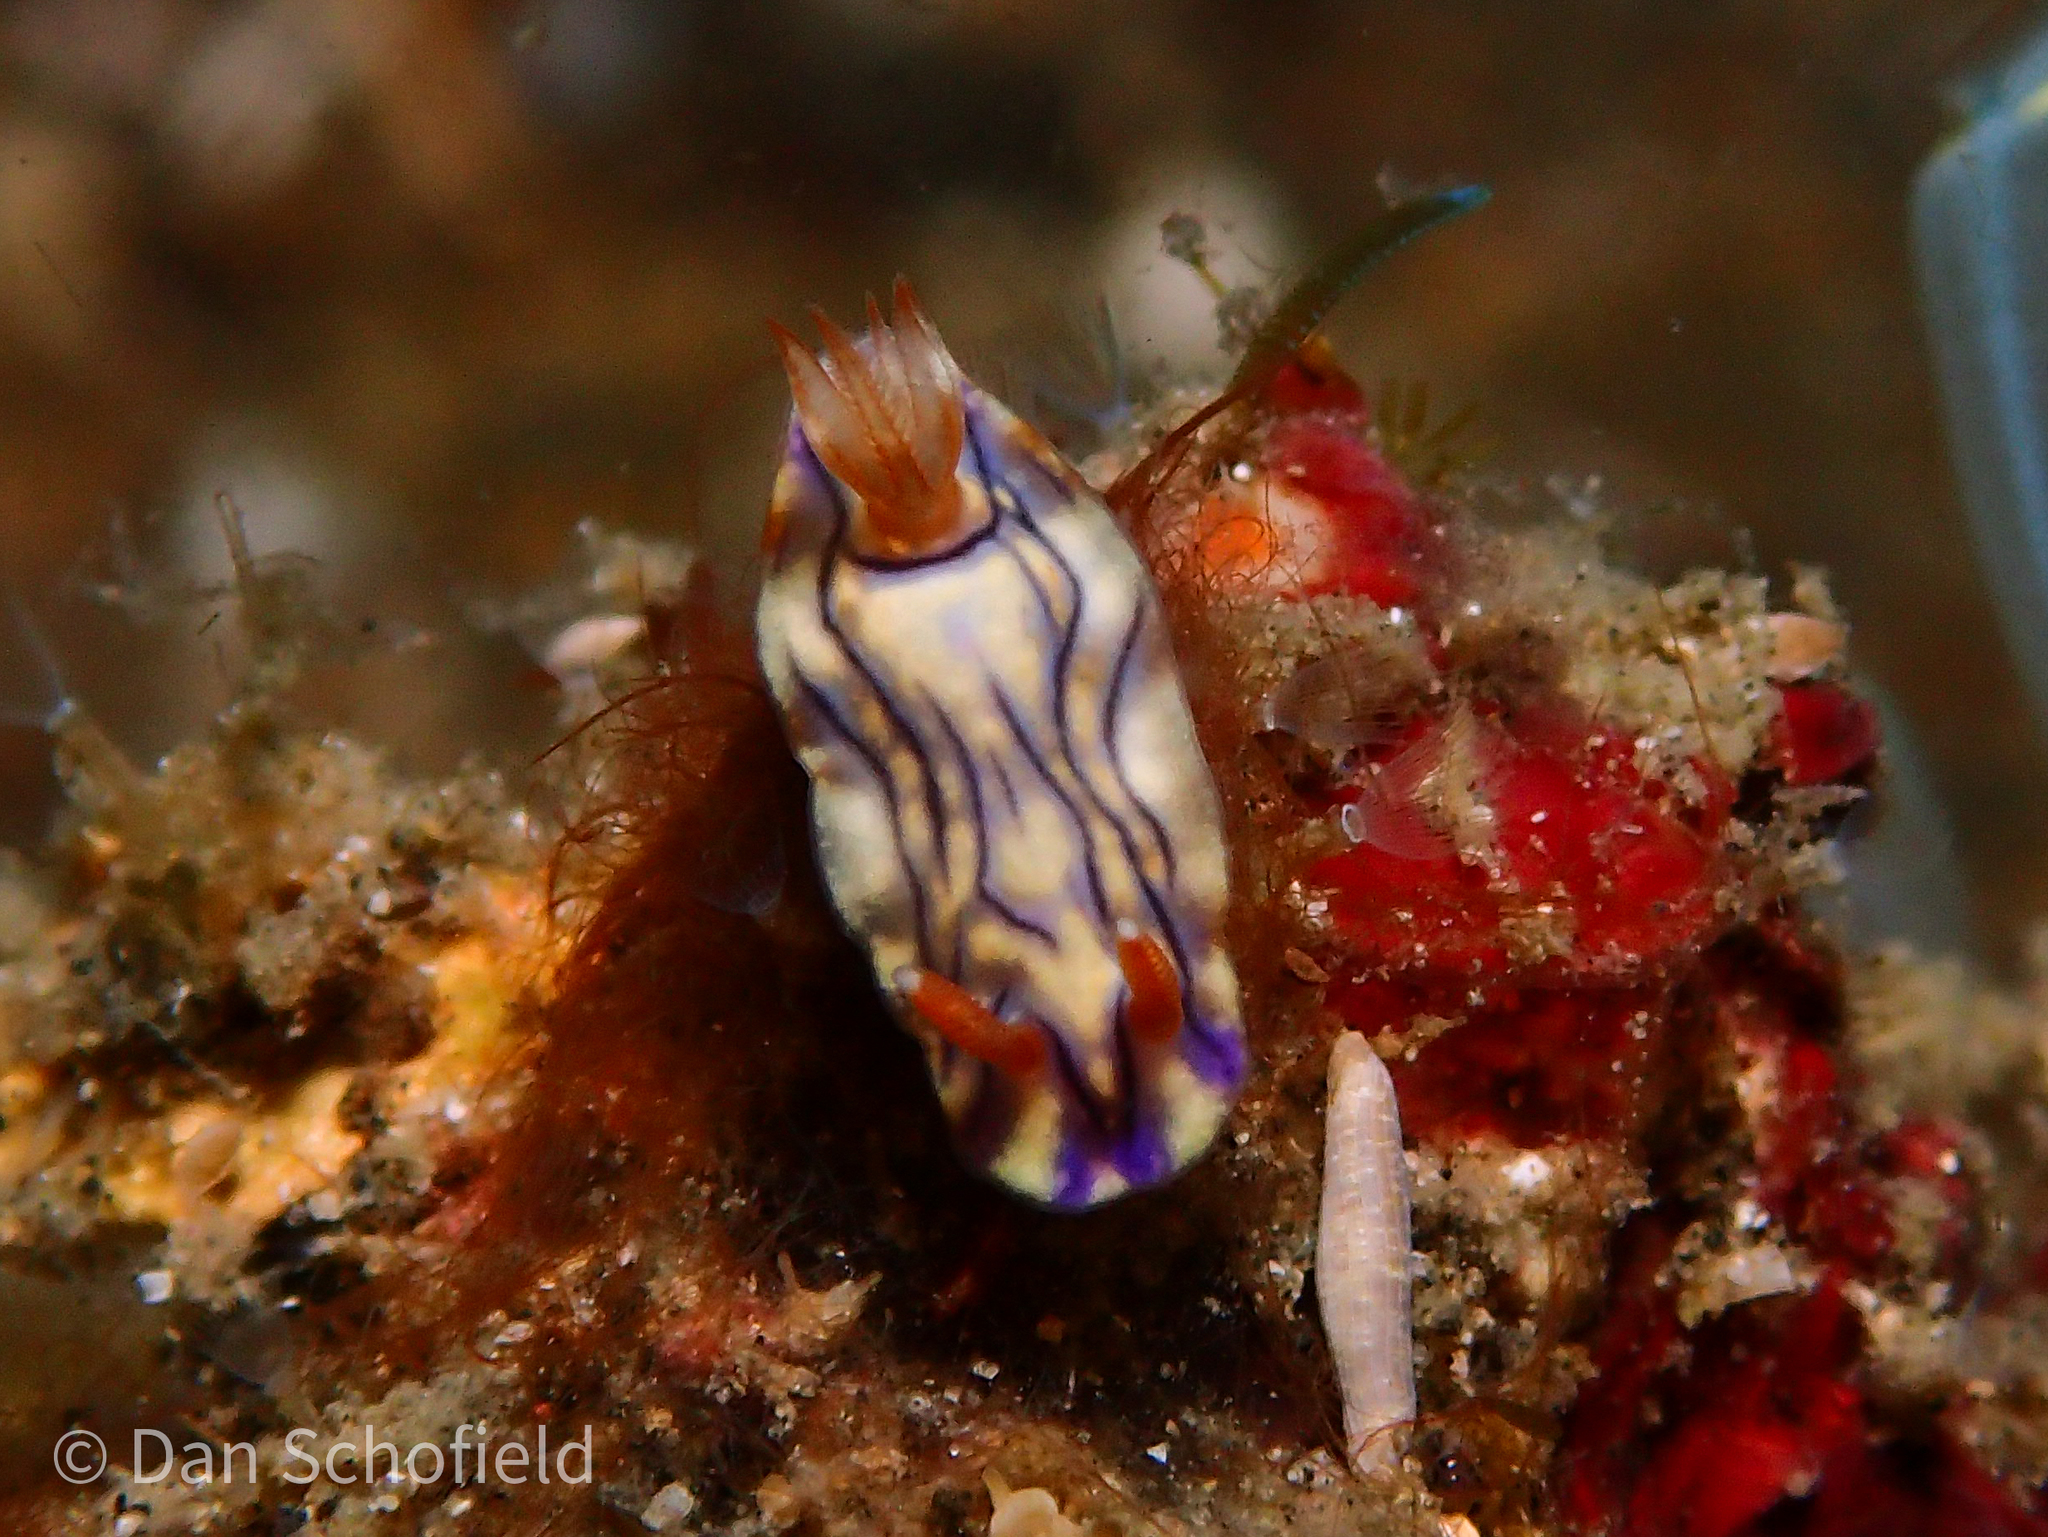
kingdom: Animalia
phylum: Mollusca
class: Gastropoda
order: Nudibranchia
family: Chromodorididae
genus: Hypselodoris
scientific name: Hypselodoris zephyra
